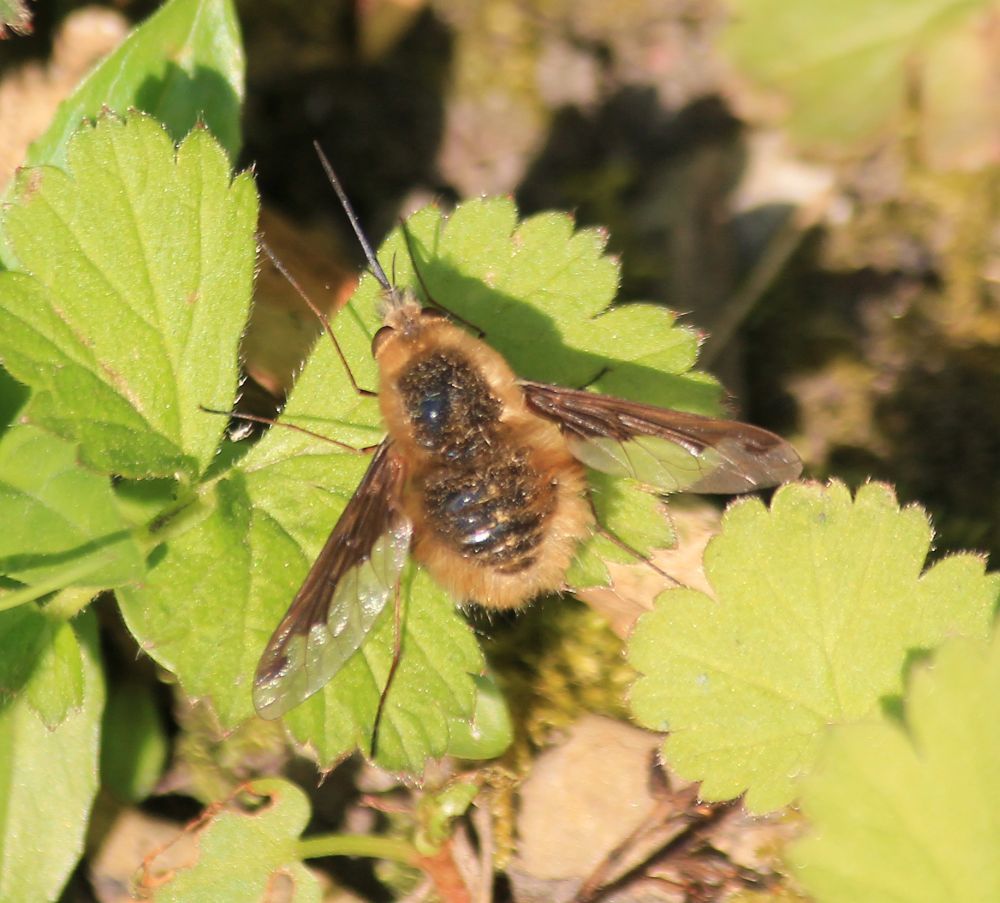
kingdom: Animalia
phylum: Arthropoda
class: Insecta
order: Diptera
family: Bombyliidae
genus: Bombylius
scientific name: Bombylius major
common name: Bee fly
